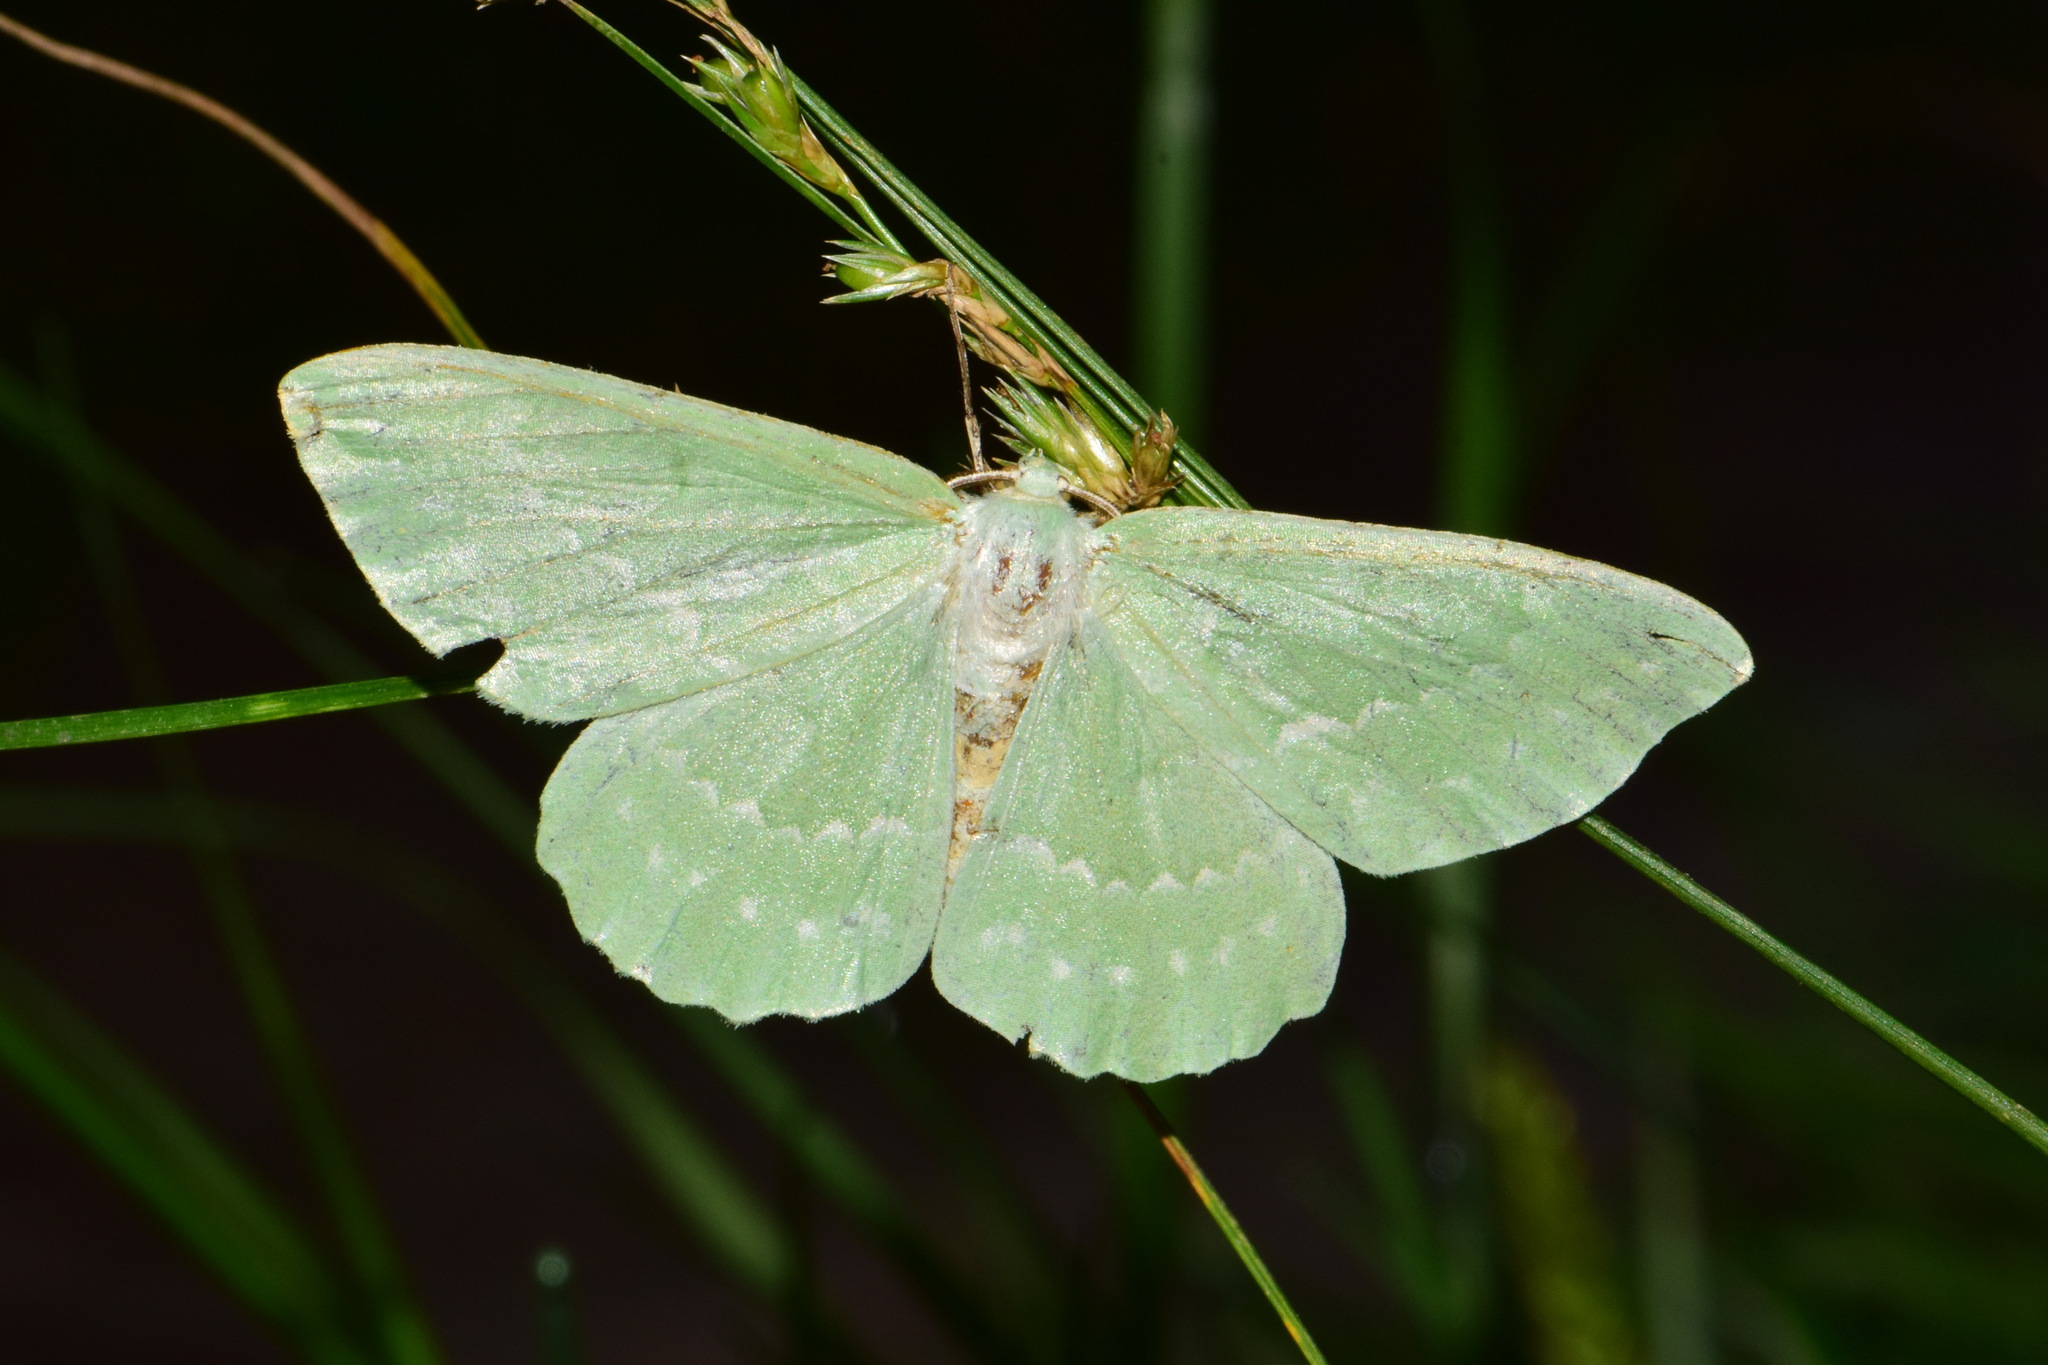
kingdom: Animalia
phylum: Arthropoda
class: Insecta
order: Lepidoptera
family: Geometridae
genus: Geometra
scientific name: Geometra papilionaria
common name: Large emerald
